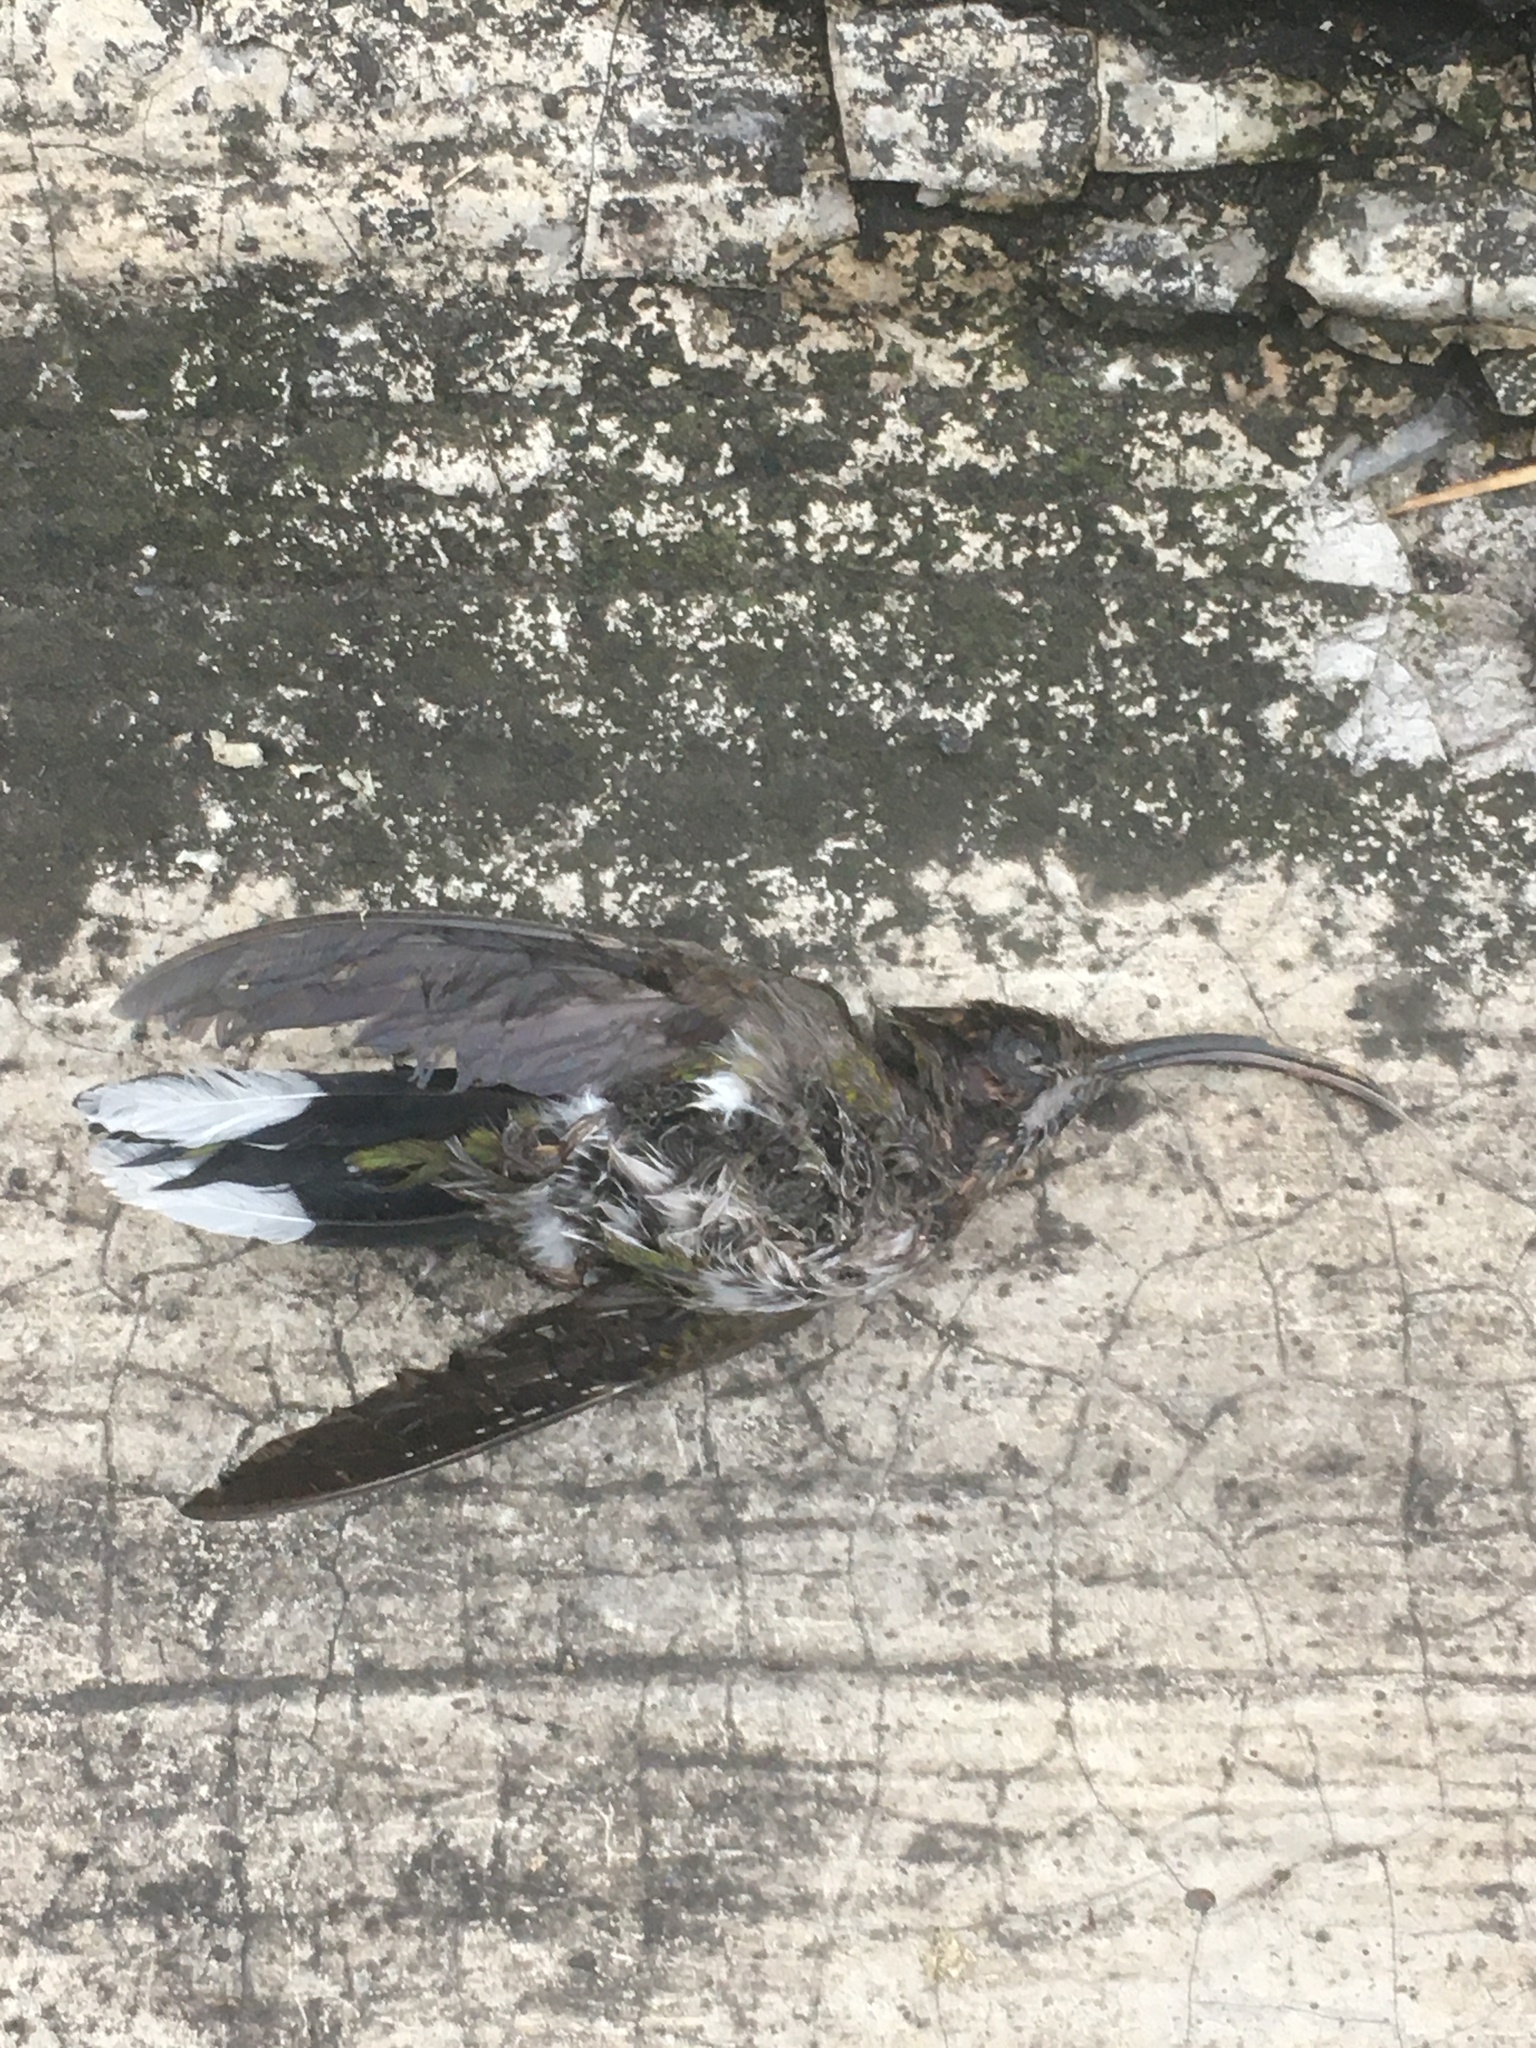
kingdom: Animalia
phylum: Chordata
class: Aves
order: Apodiformes
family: Trochilidae
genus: Campylopterus
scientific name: Campylopterus hemileucurus
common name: Violet sabrewing
